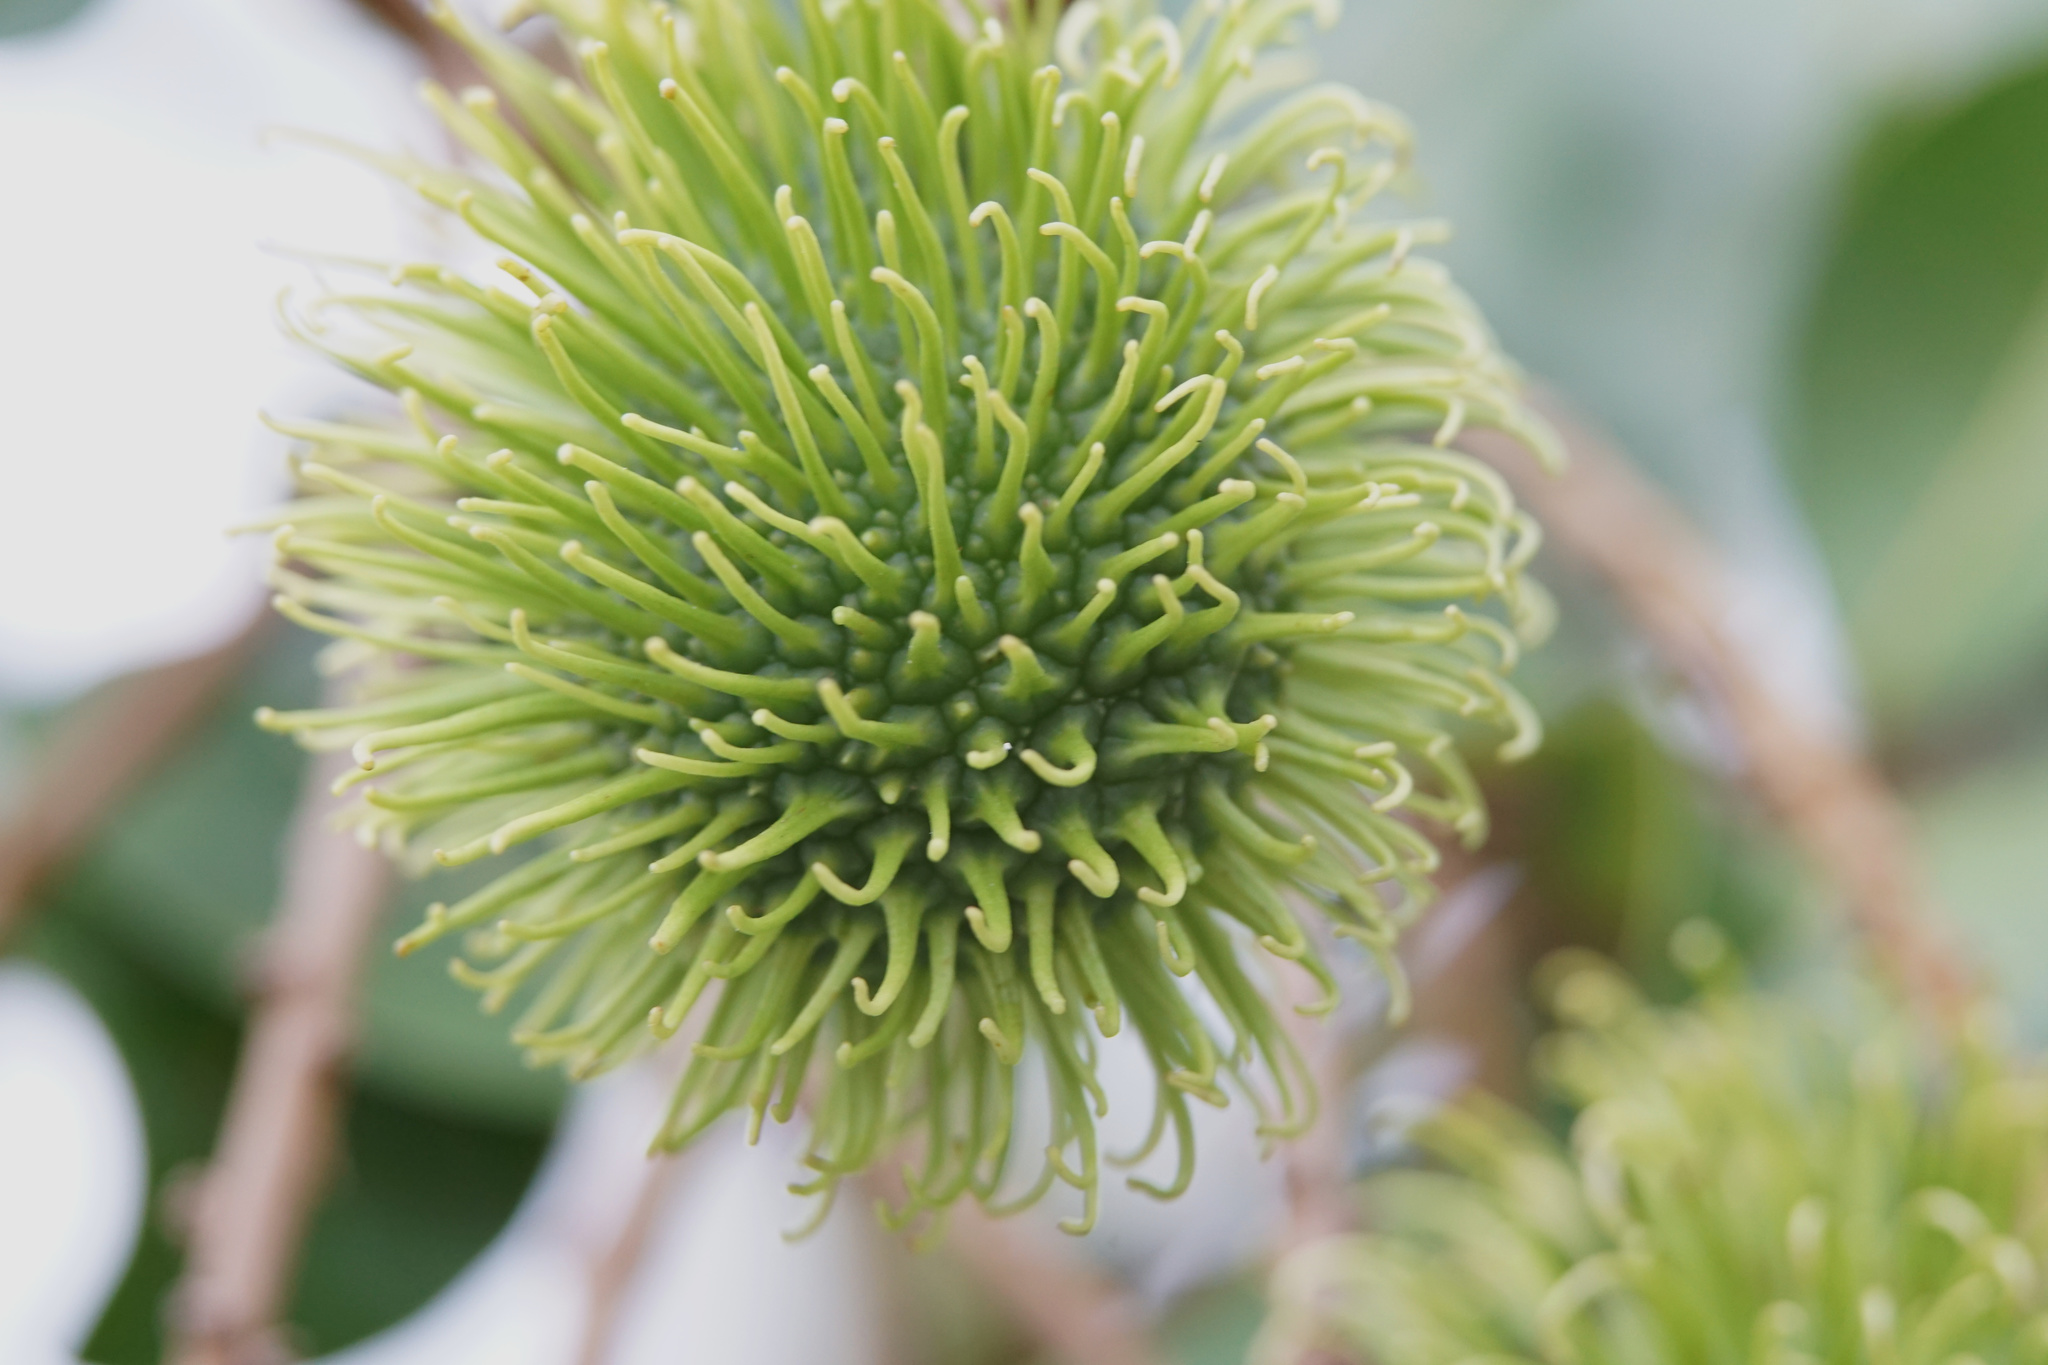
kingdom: Plantae
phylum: Tracheophyta
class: Magnoliopsida
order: Sapindales
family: Sapindaceae
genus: Nephelium
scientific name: Nephelium lappaceum
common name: Rambutan
